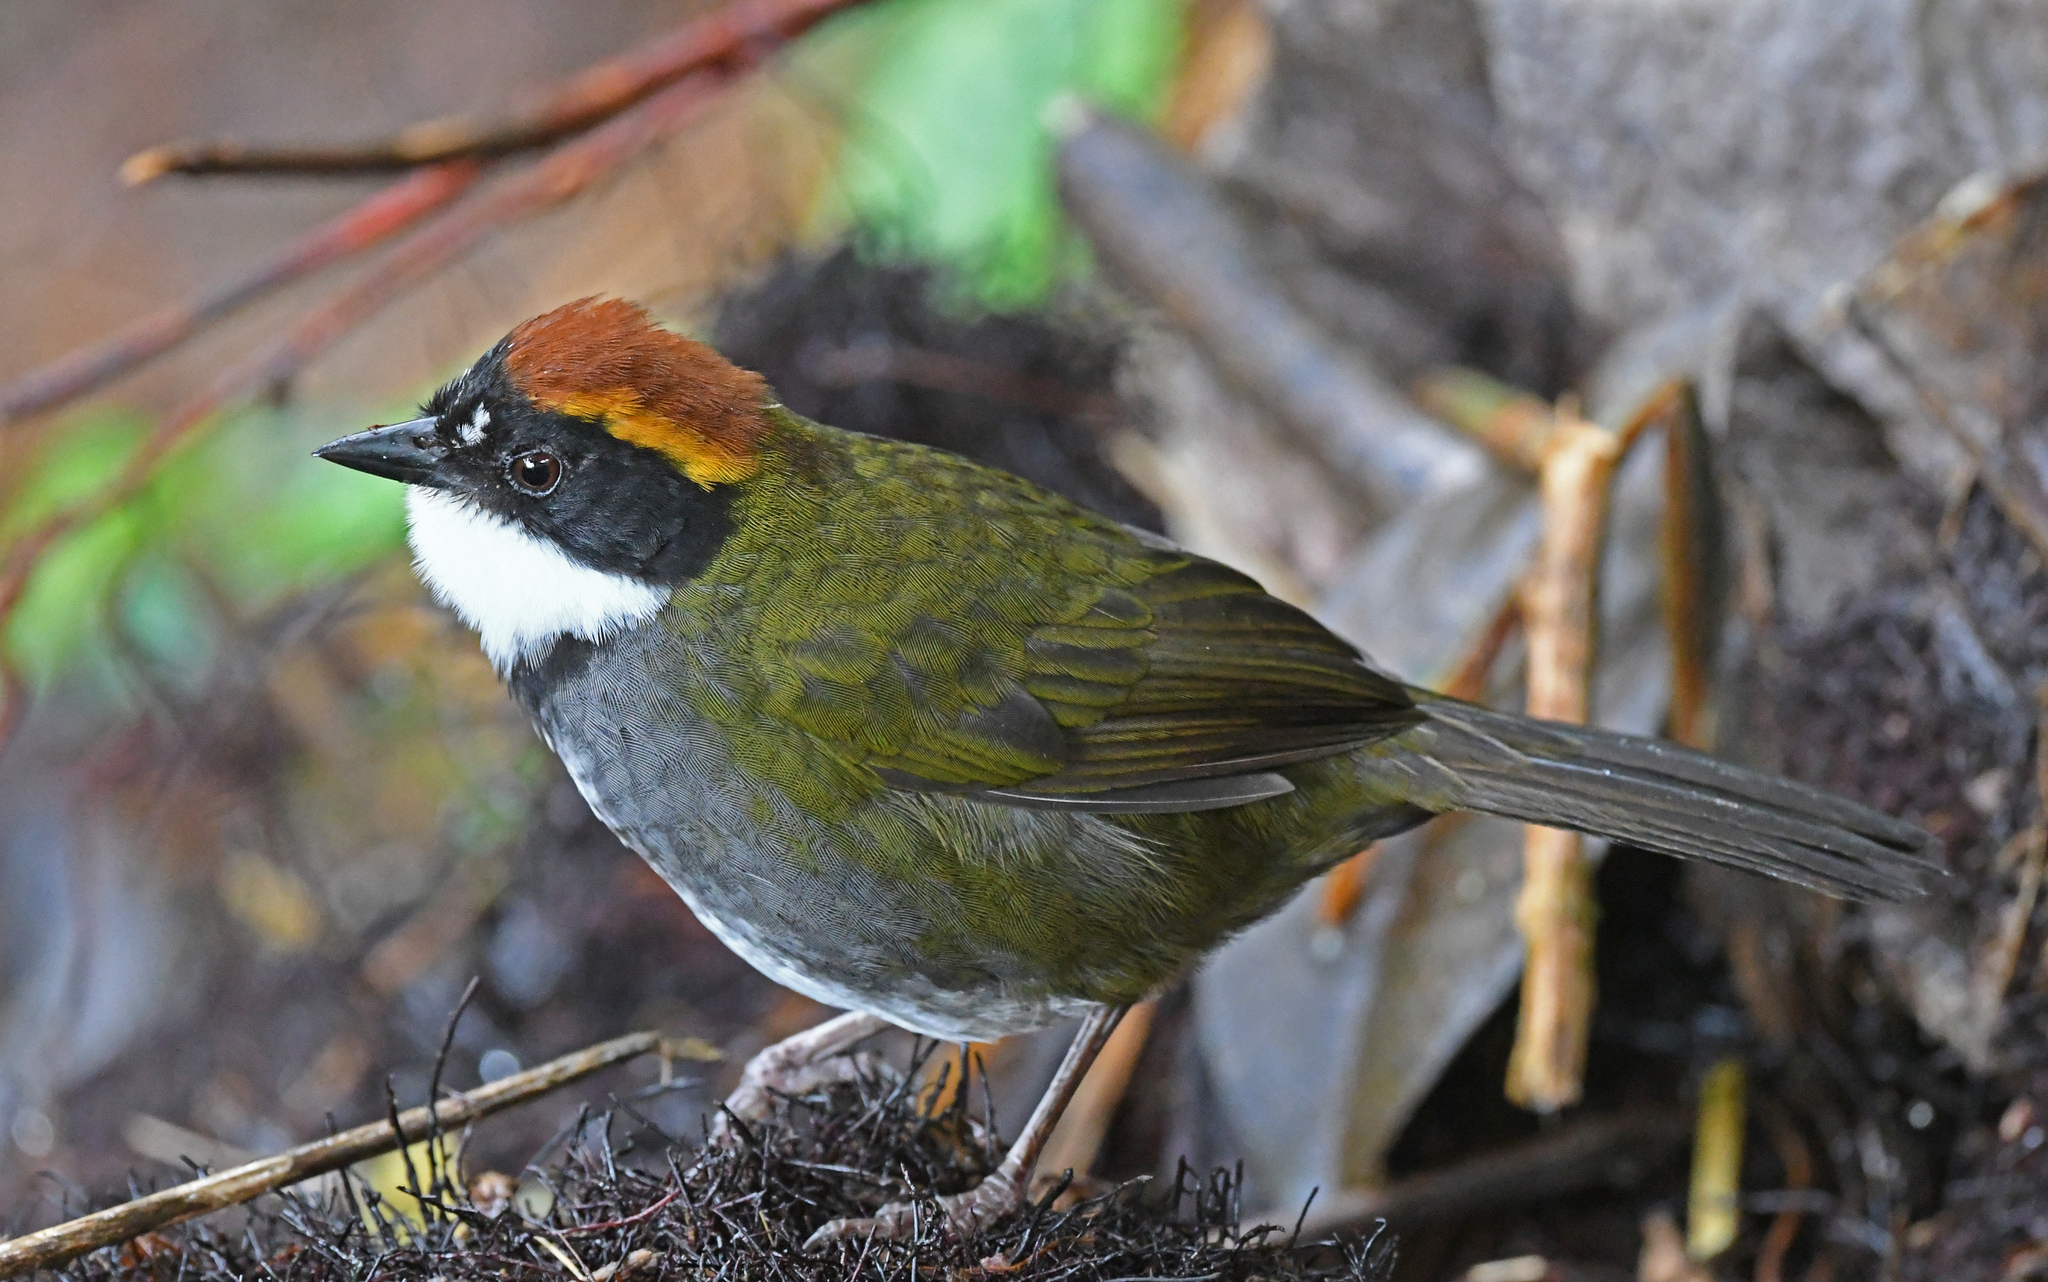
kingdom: Animalia
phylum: Chordata
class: Aves
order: Passeriformes
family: Passerellidae
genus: Arremon
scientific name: Arremon brunneinucha
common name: Chestnut-capped brushfinch
